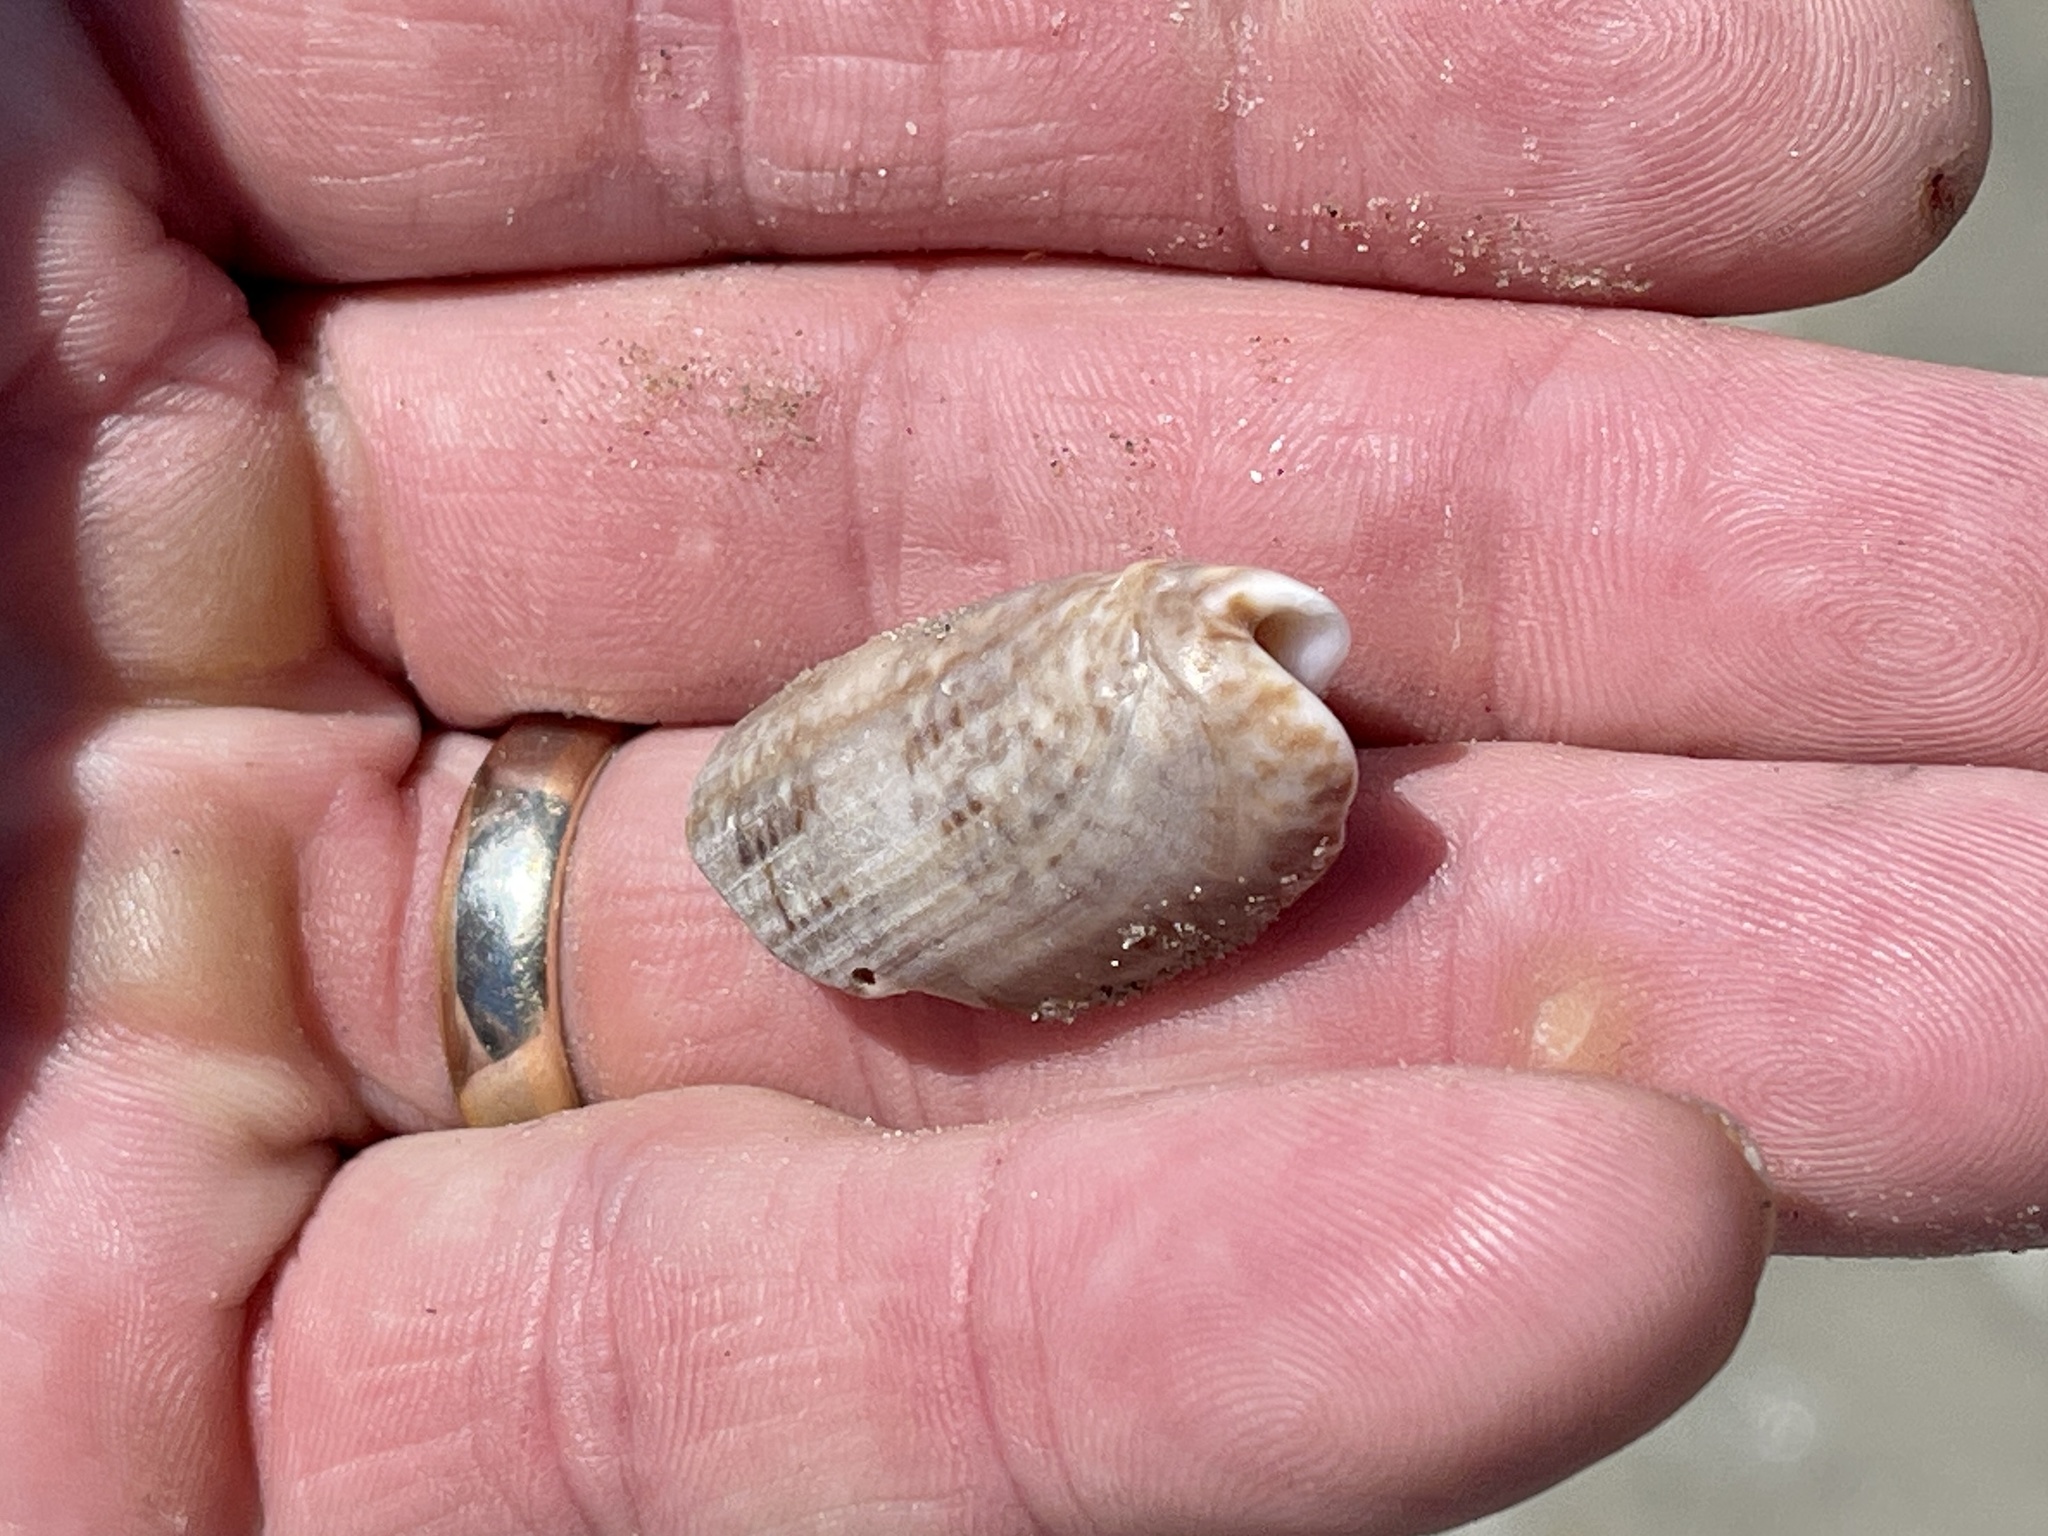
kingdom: Animalia
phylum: Mollusca
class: Gastropoda
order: Neogastropoda
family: Olividae
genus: Oliva
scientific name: Oliva sayana
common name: Lettered olive
